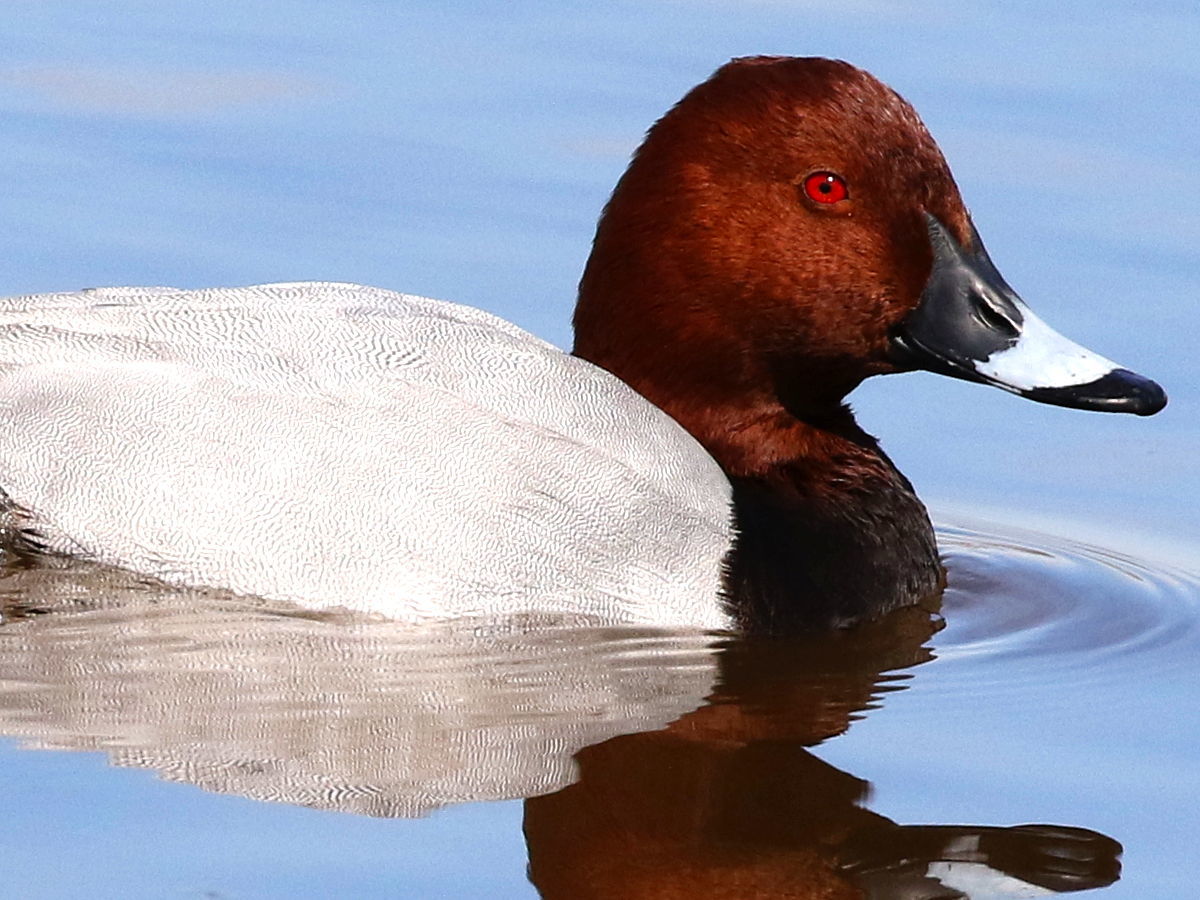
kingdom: Animalia
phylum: Chordata
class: Aves
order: Anseriformes
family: Anatidae
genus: Aythya
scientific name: Aythya ferina
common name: Common pochard
